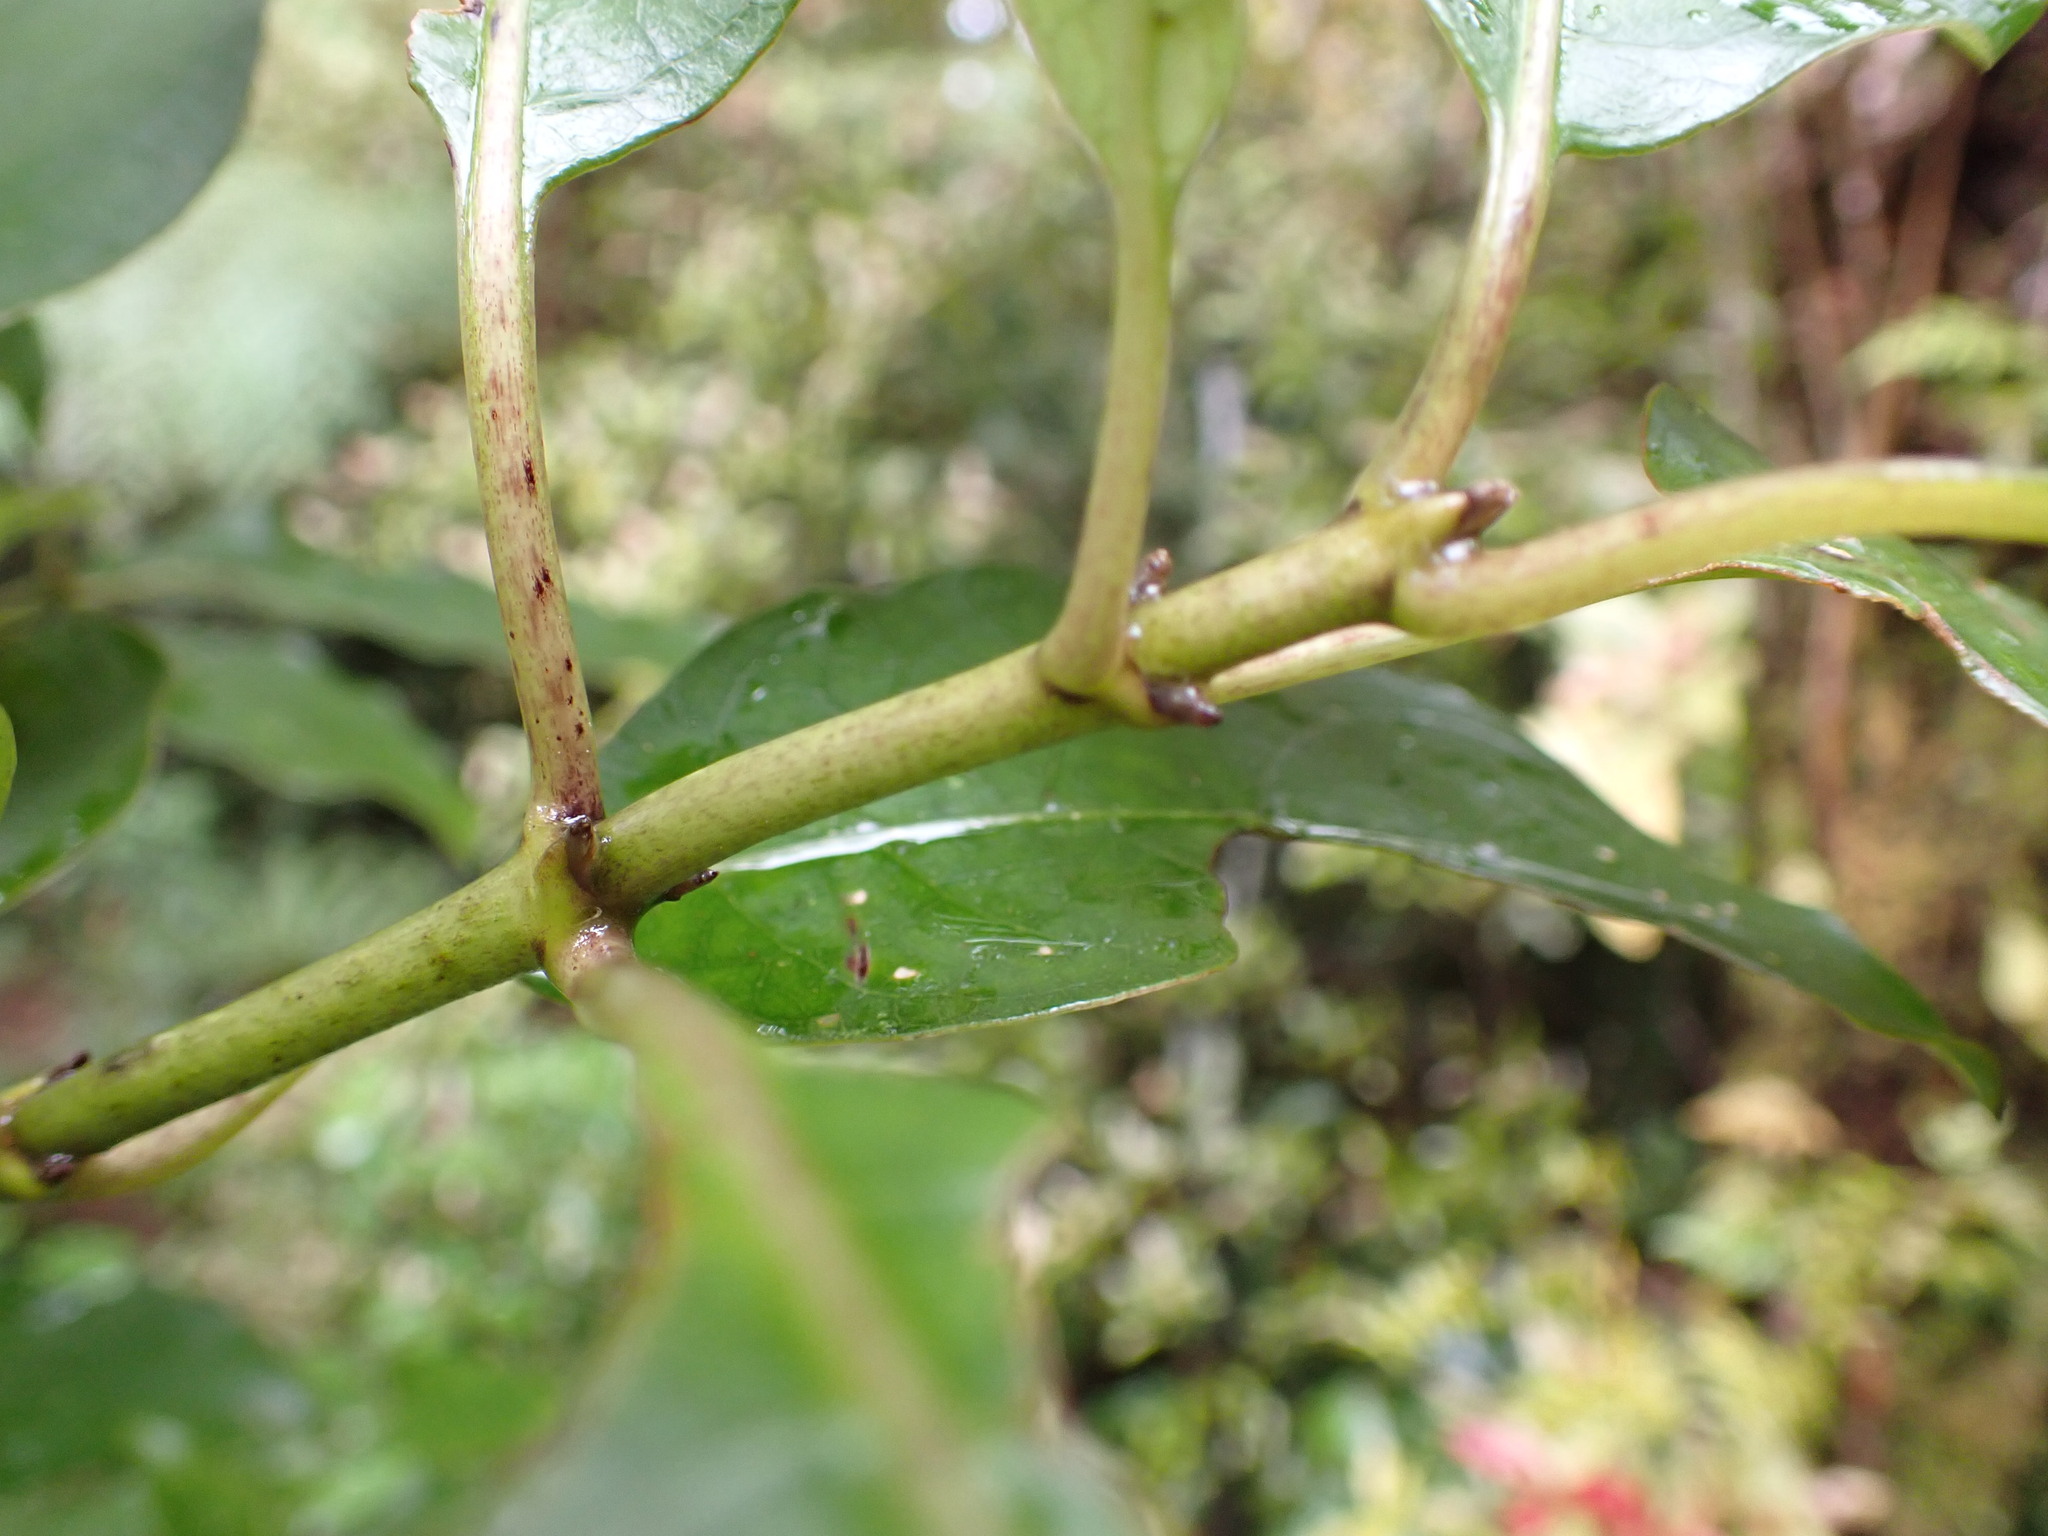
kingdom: Plantae
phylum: Tracheophyta
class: Magnoliopsida
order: Gentianales
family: Rubiaceae
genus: Coprosma
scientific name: Coprosma autumnalis
